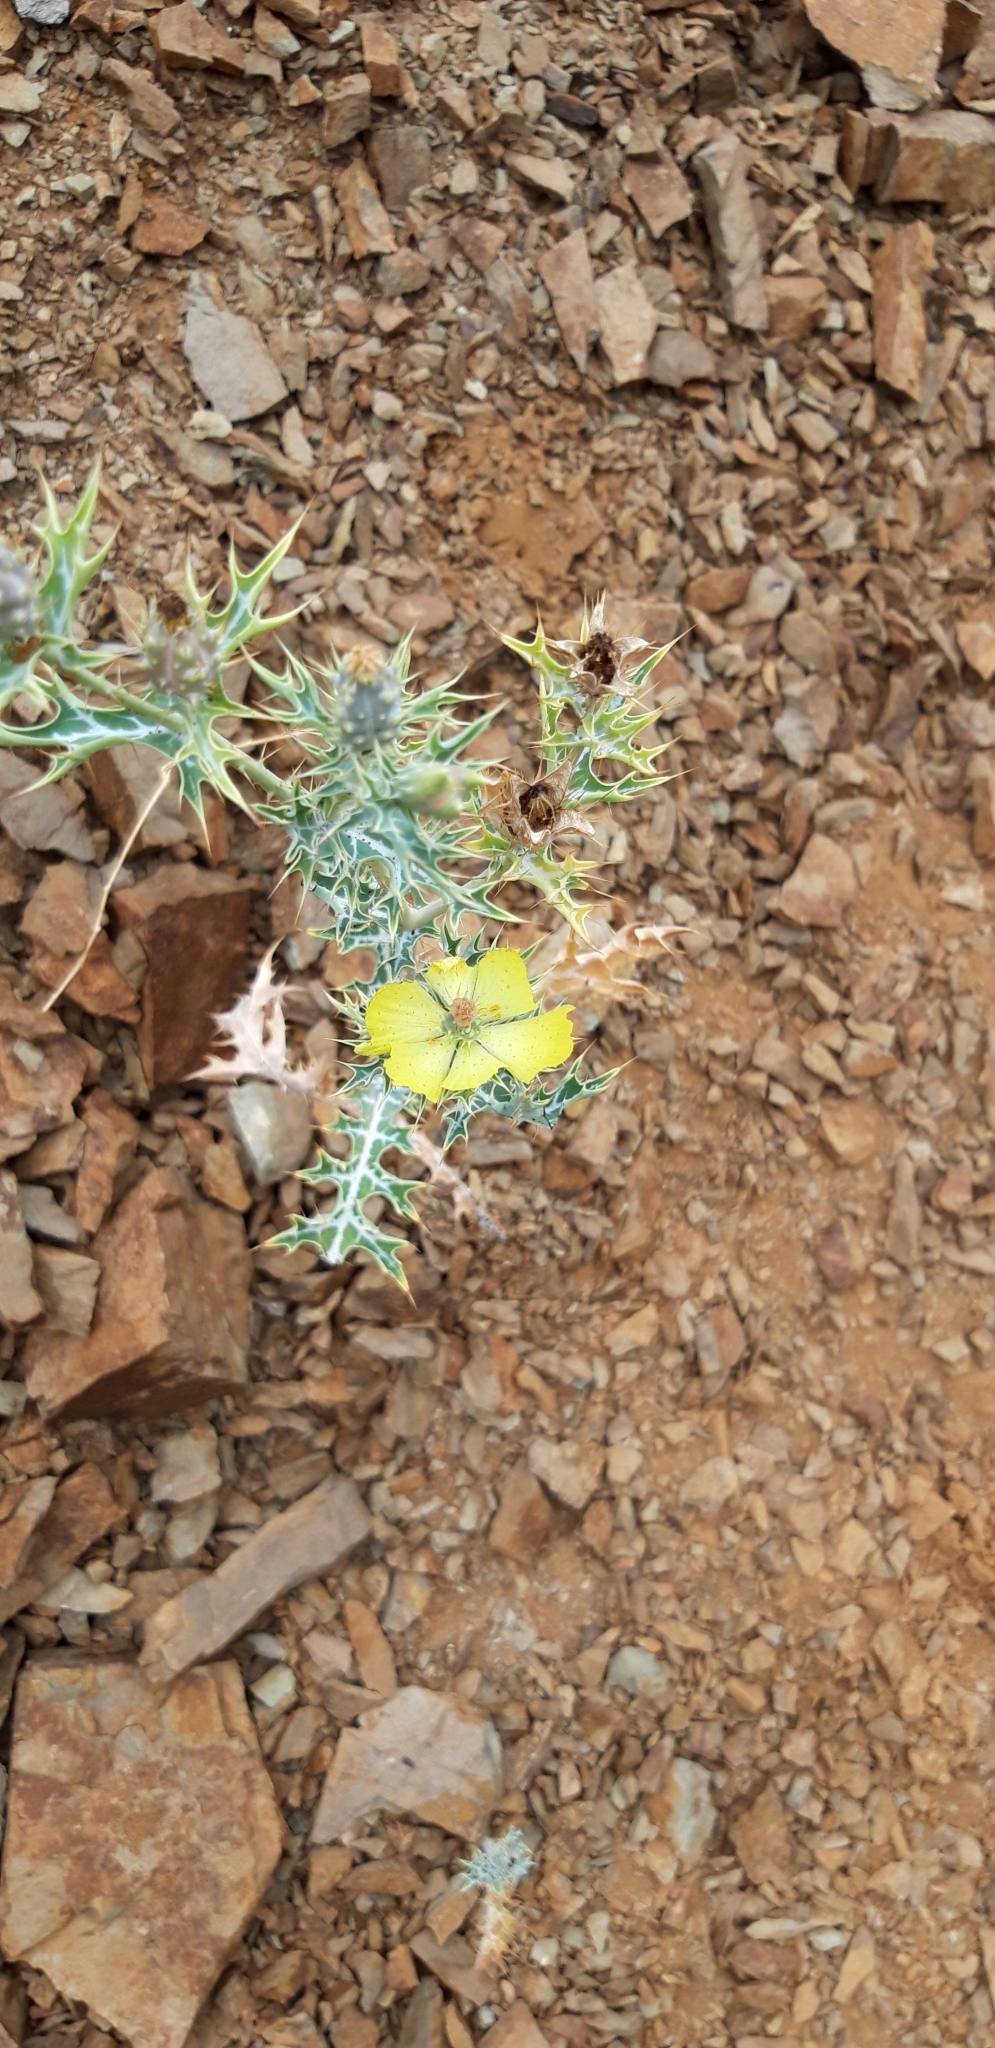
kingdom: Plantae
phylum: Tracheophyta
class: Magnoliopsida
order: Ranunculales
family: Papaveraceae
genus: Argemone
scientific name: Argemone mexicana
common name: Mexican poppy
